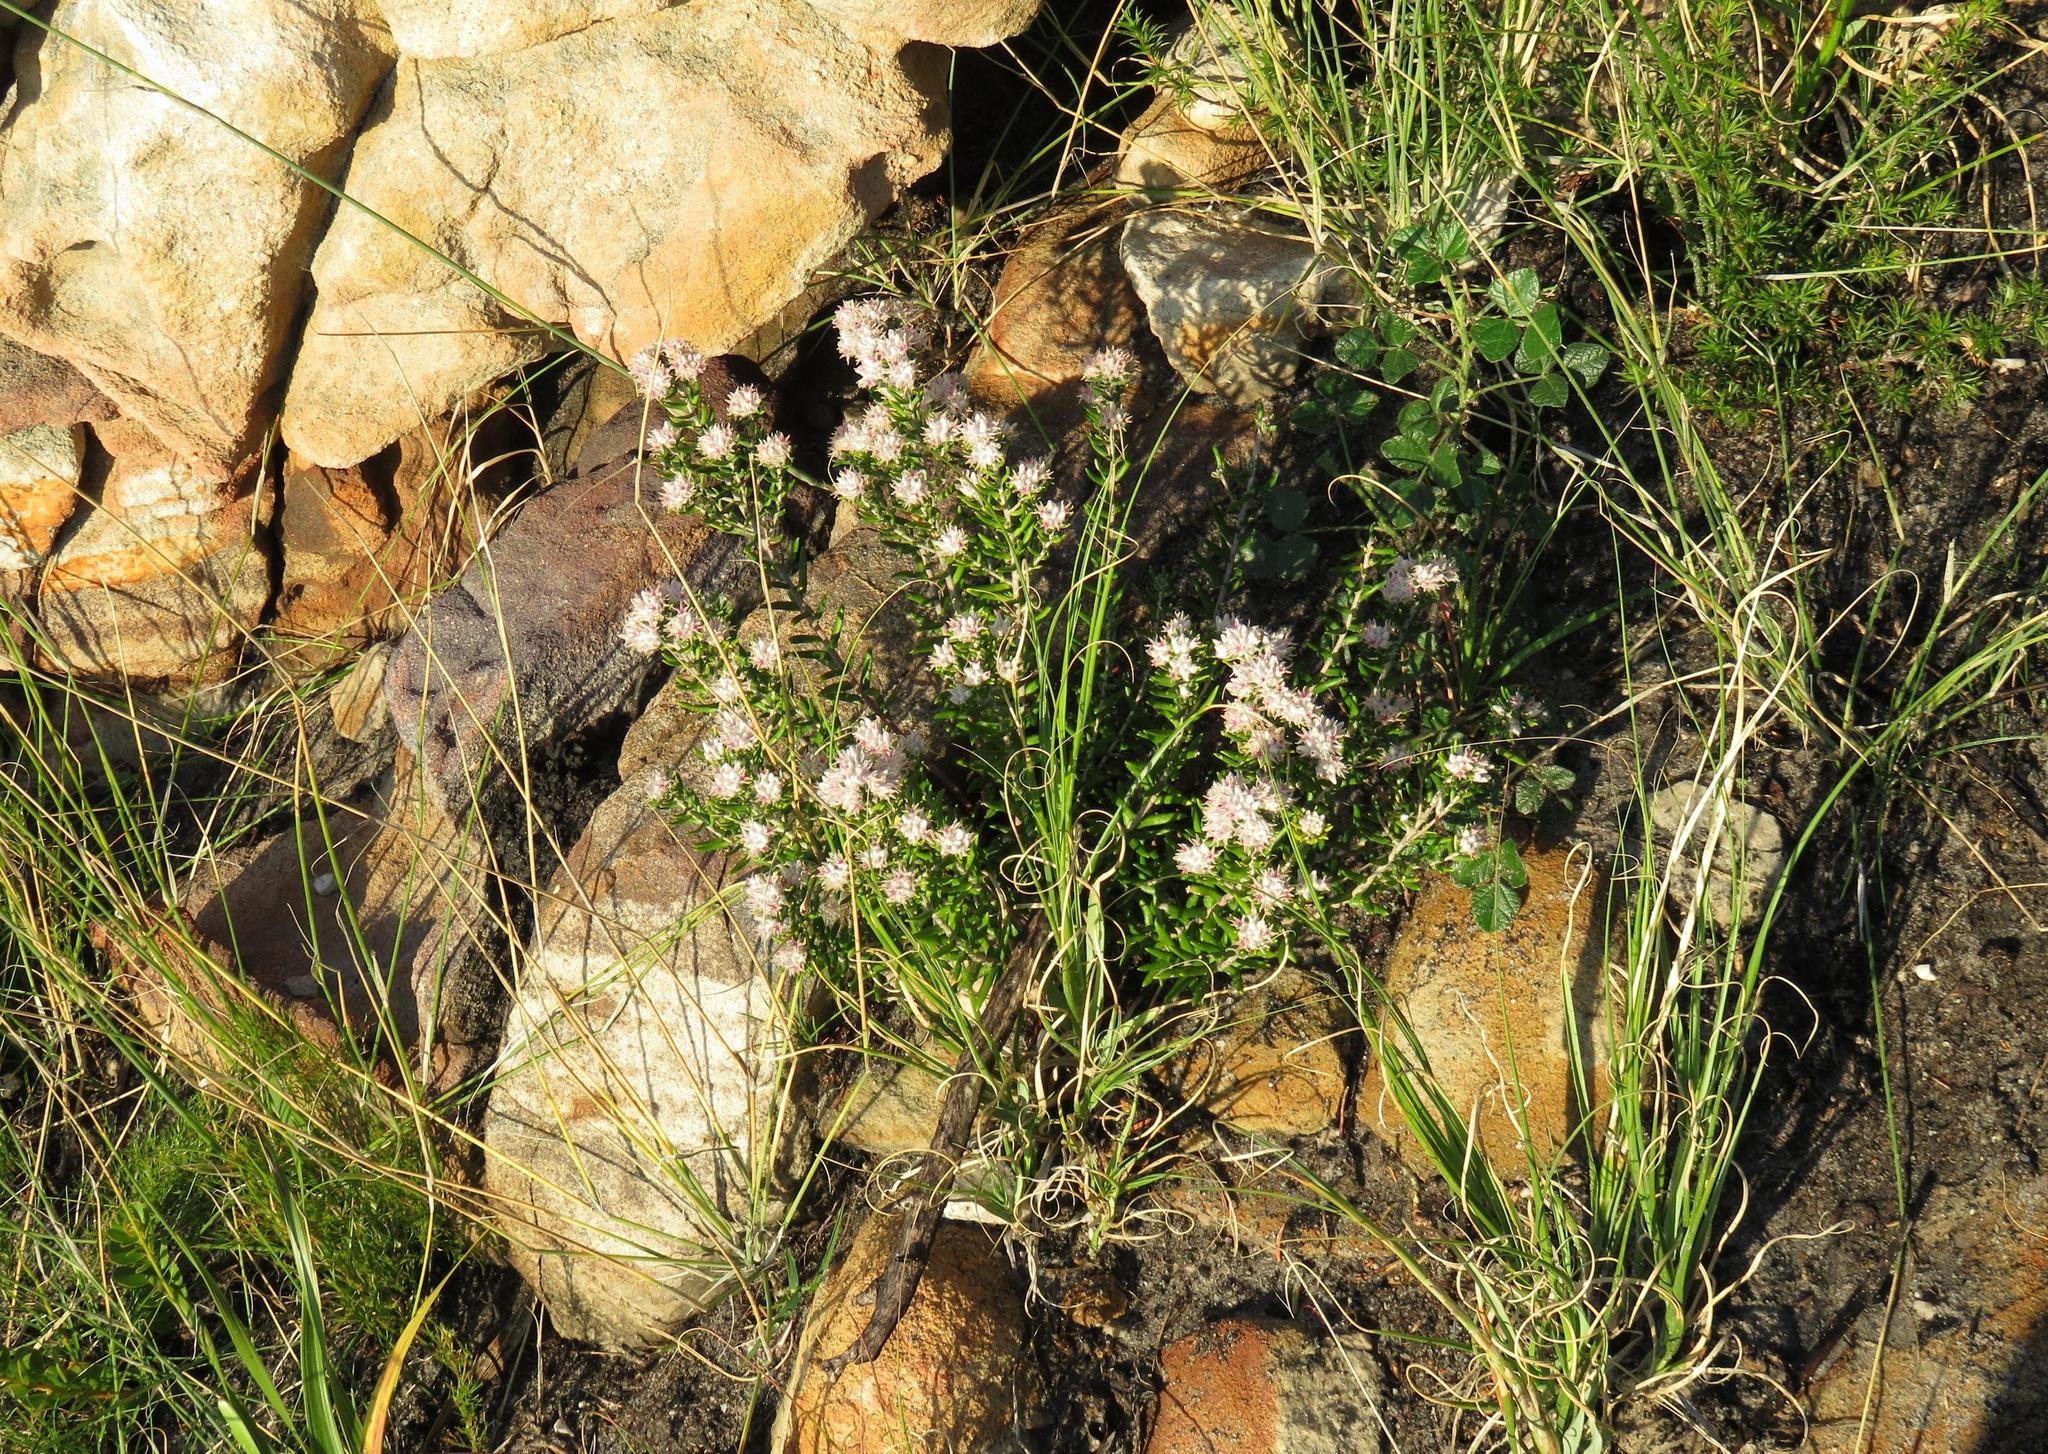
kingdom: Plantae
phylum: Tracheophyta
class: Magnoliopsida
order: Rosales
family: Rhamnaceae
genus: Trichocephalus
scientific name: Trichocephalus stipularis
